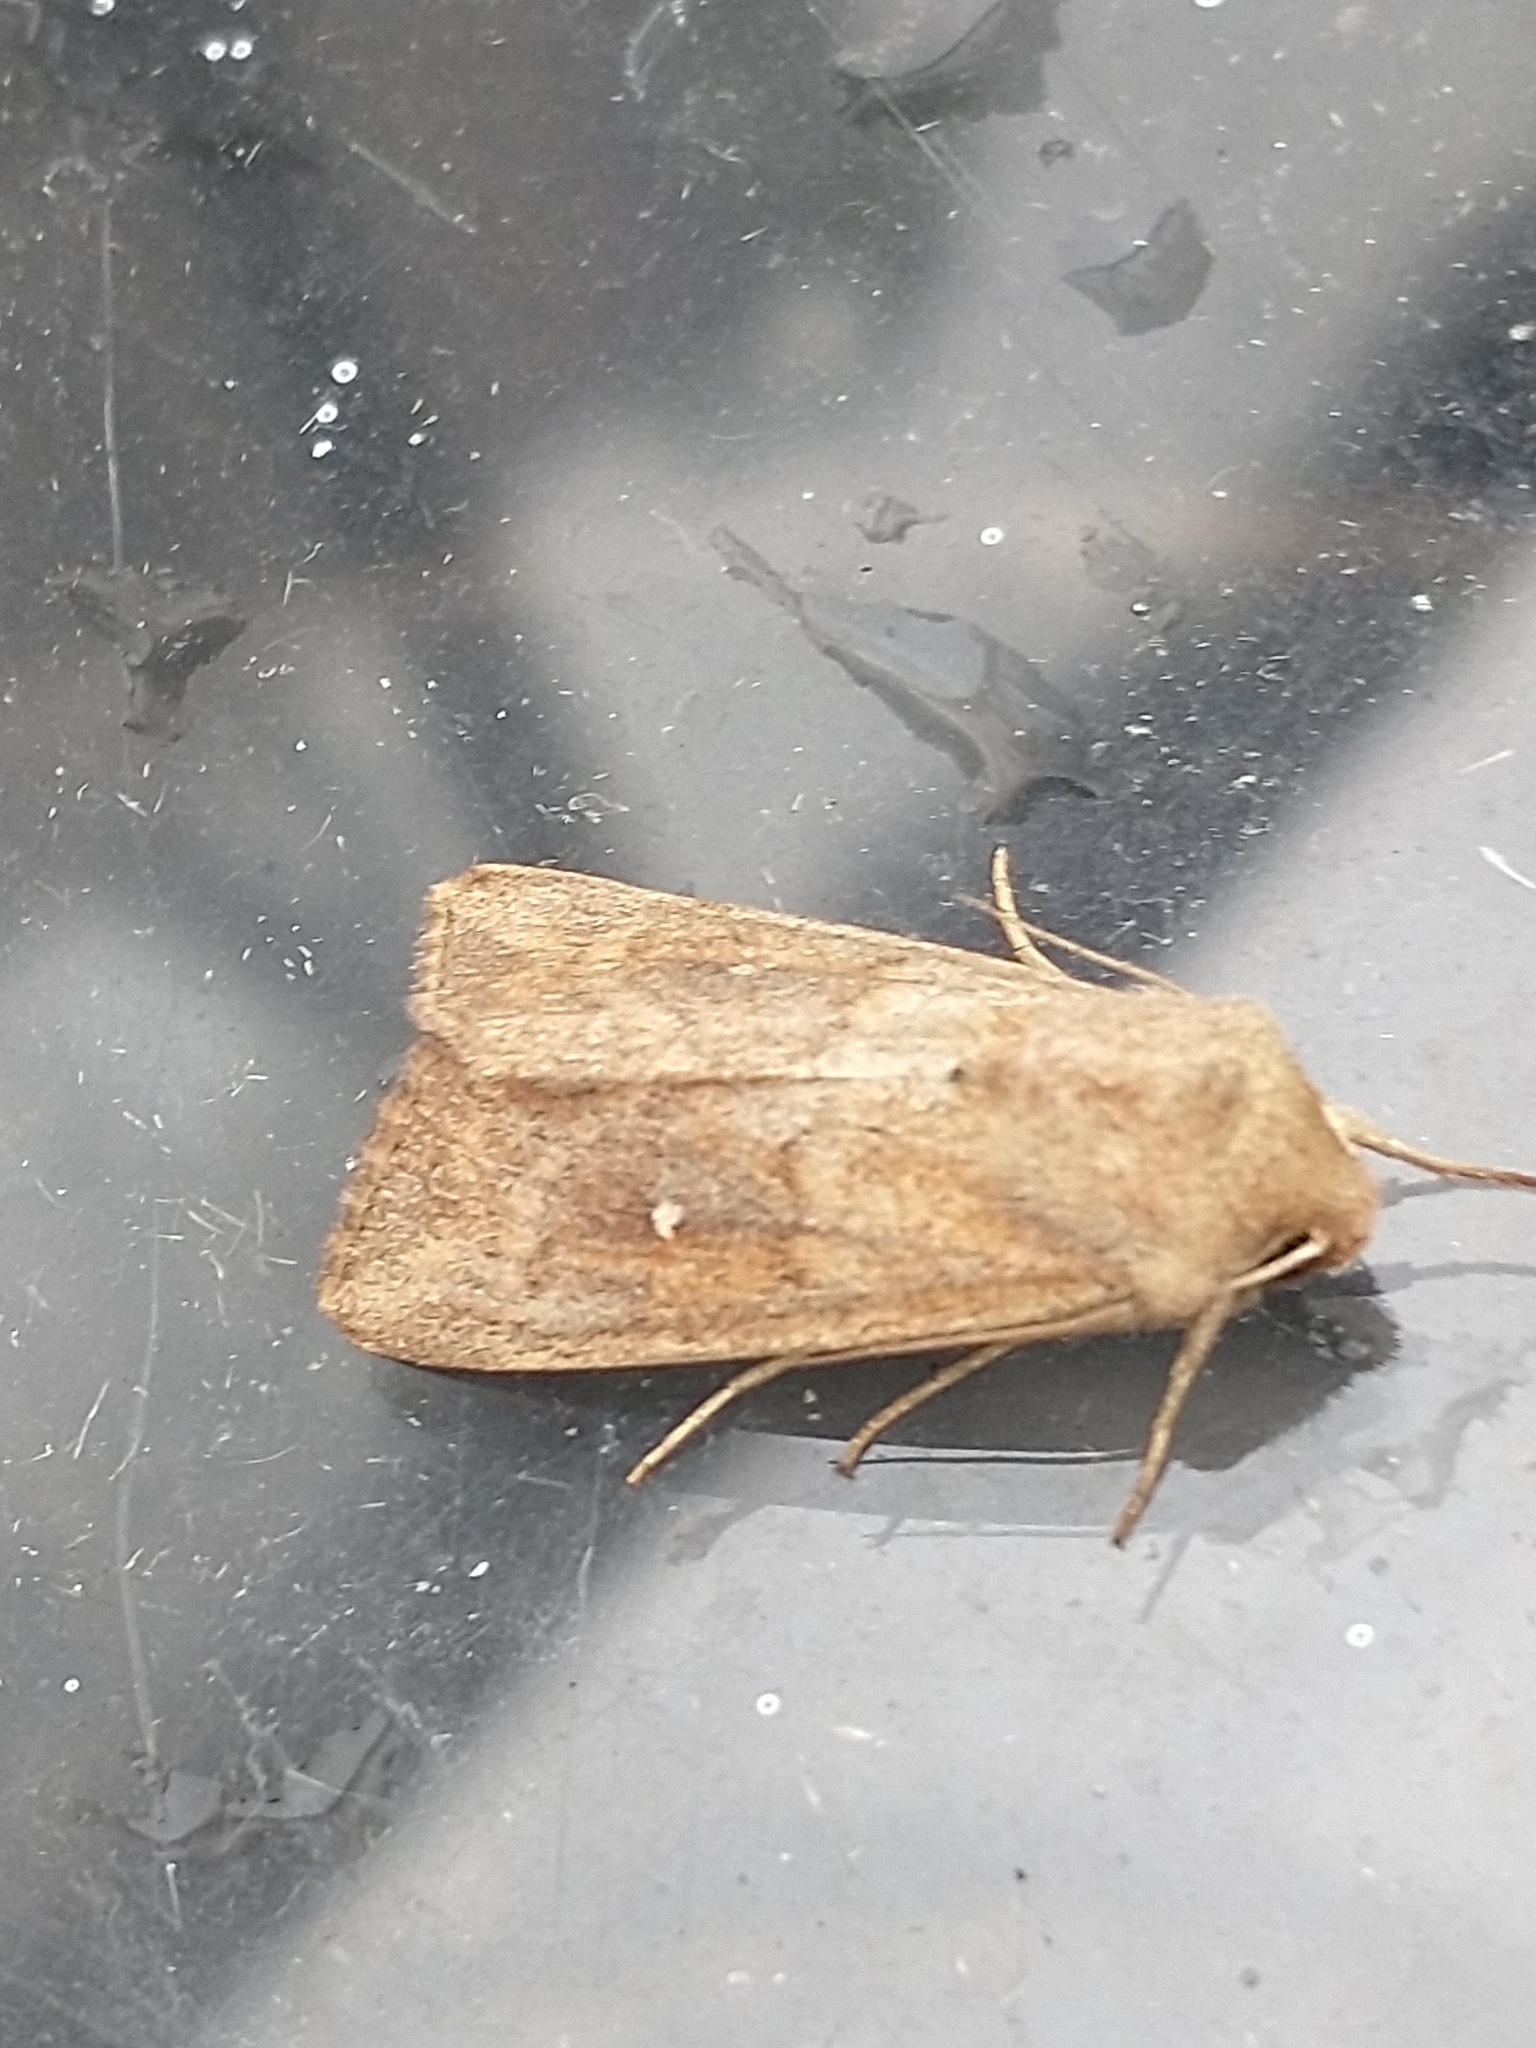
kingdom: Animalia
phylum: Arthropoda
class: Insecta
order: Lepidoptera
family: Noctuidae
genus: Mythimna
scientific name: Mythimna albipuncta
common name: White-point
